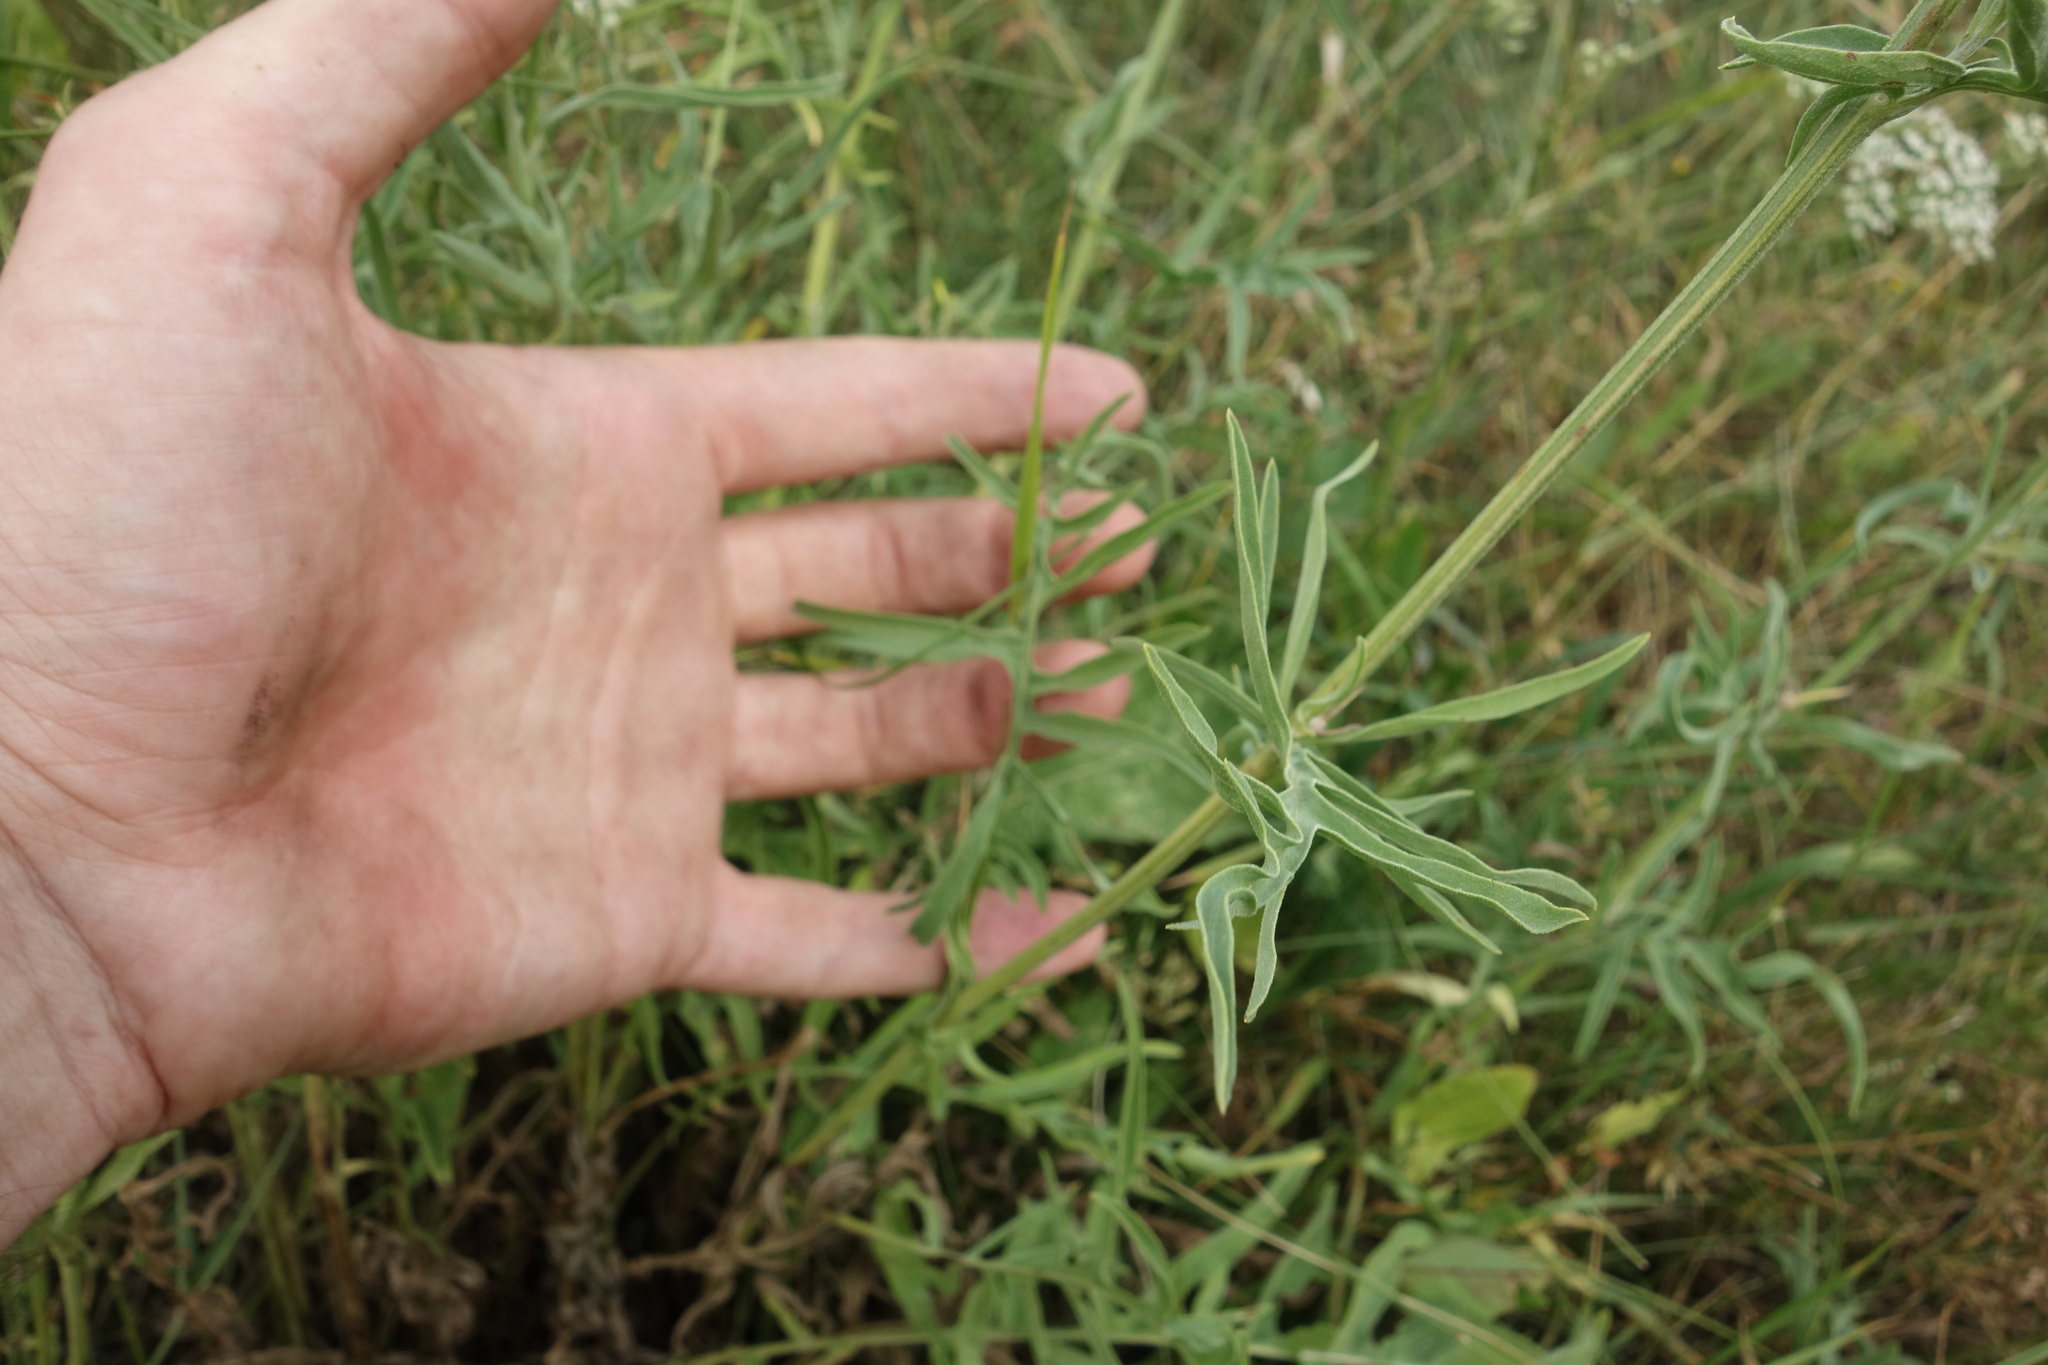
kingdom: Plantae
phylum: Tracheophyta
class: Magnoliopsida
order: Asterales
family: Asteraceae
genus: Centaurea
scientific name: Centaurea scabiosa
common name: Greater knapweed
